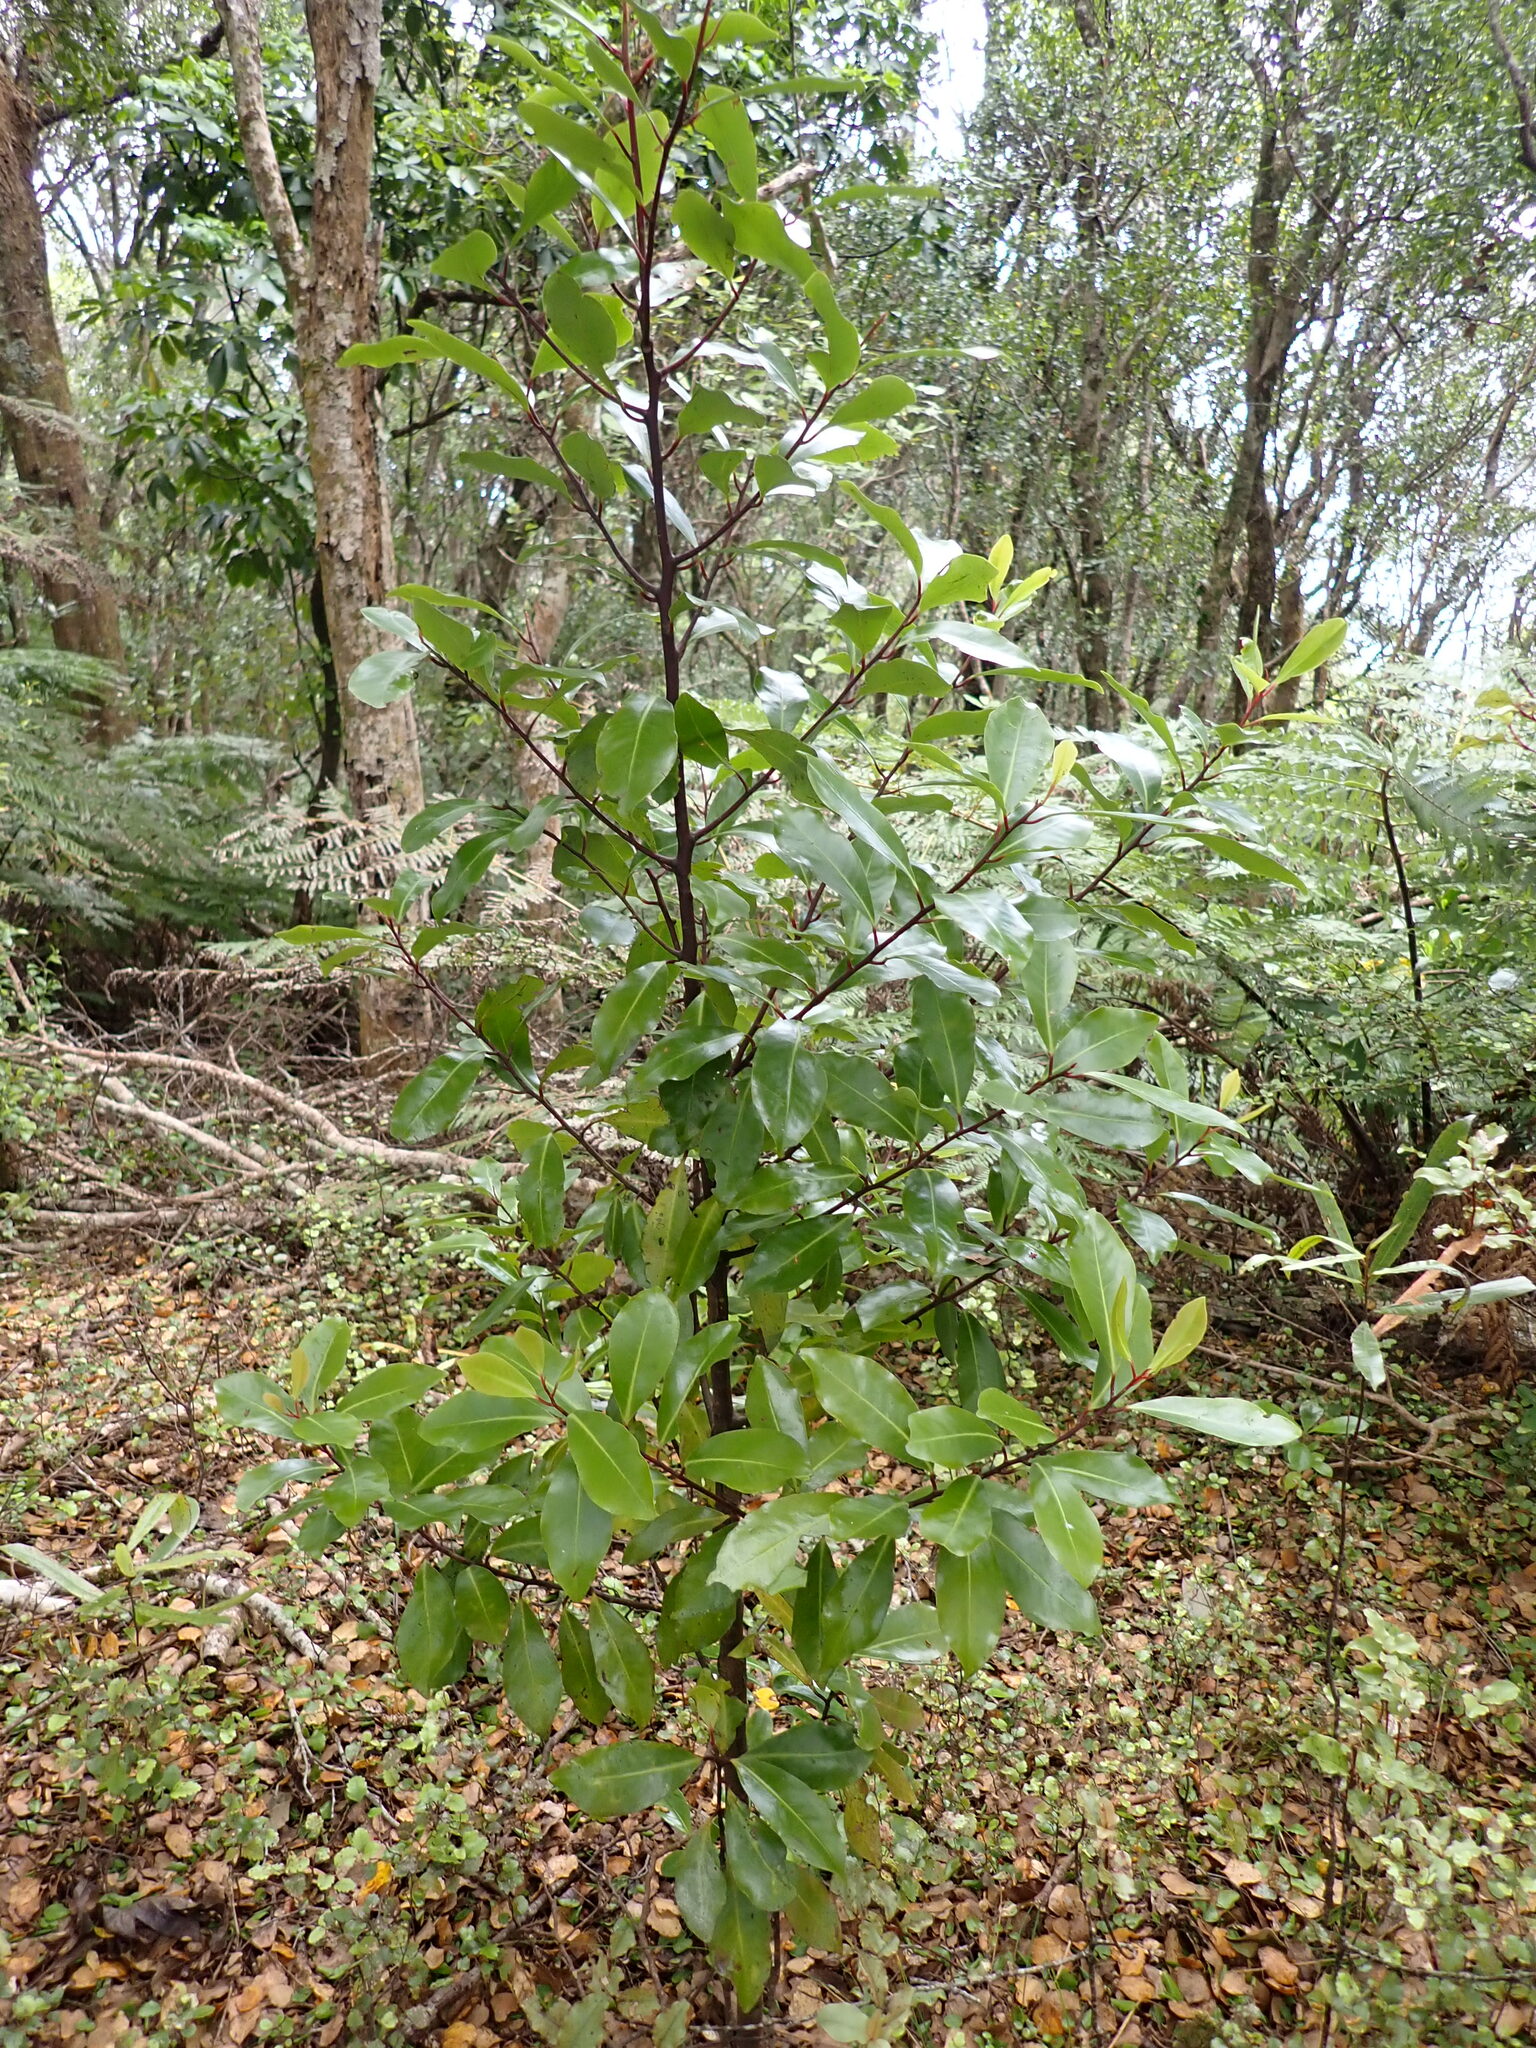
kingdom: Plantae
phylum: Tracheophyta
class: Magnoliopsida
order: Canellales
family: Winteraceae
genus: Pseudowintera
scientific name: Pseudowintera axillaris
